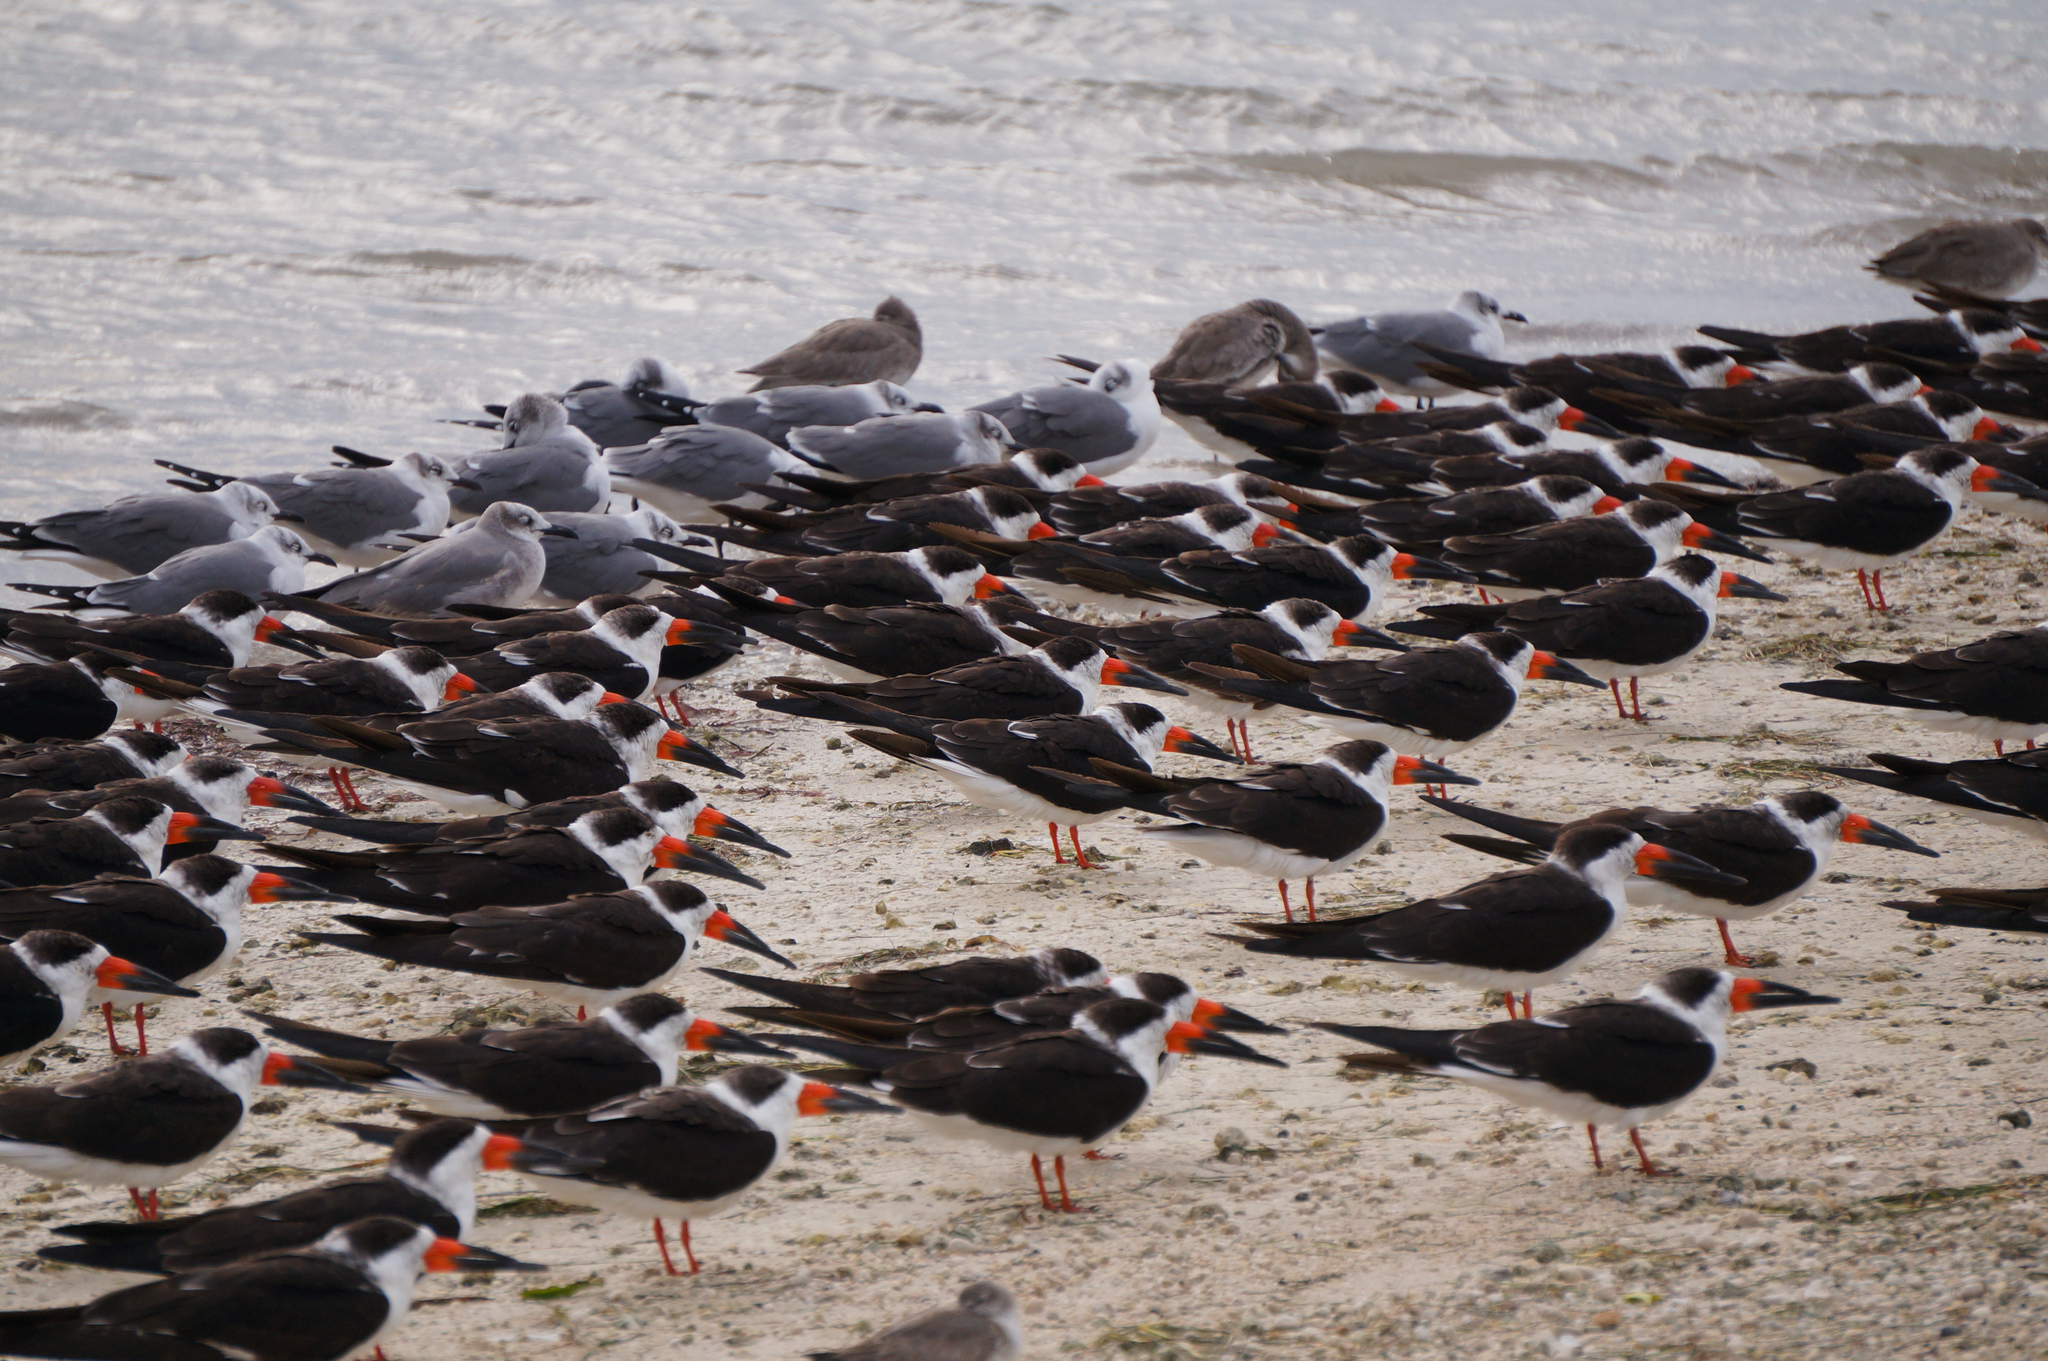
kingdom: Animalia
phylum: Chordata
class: Aves
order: Charadriiformes
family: Laridae
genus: Rynchops
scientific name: Rynchops niger
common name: Black skimmer
